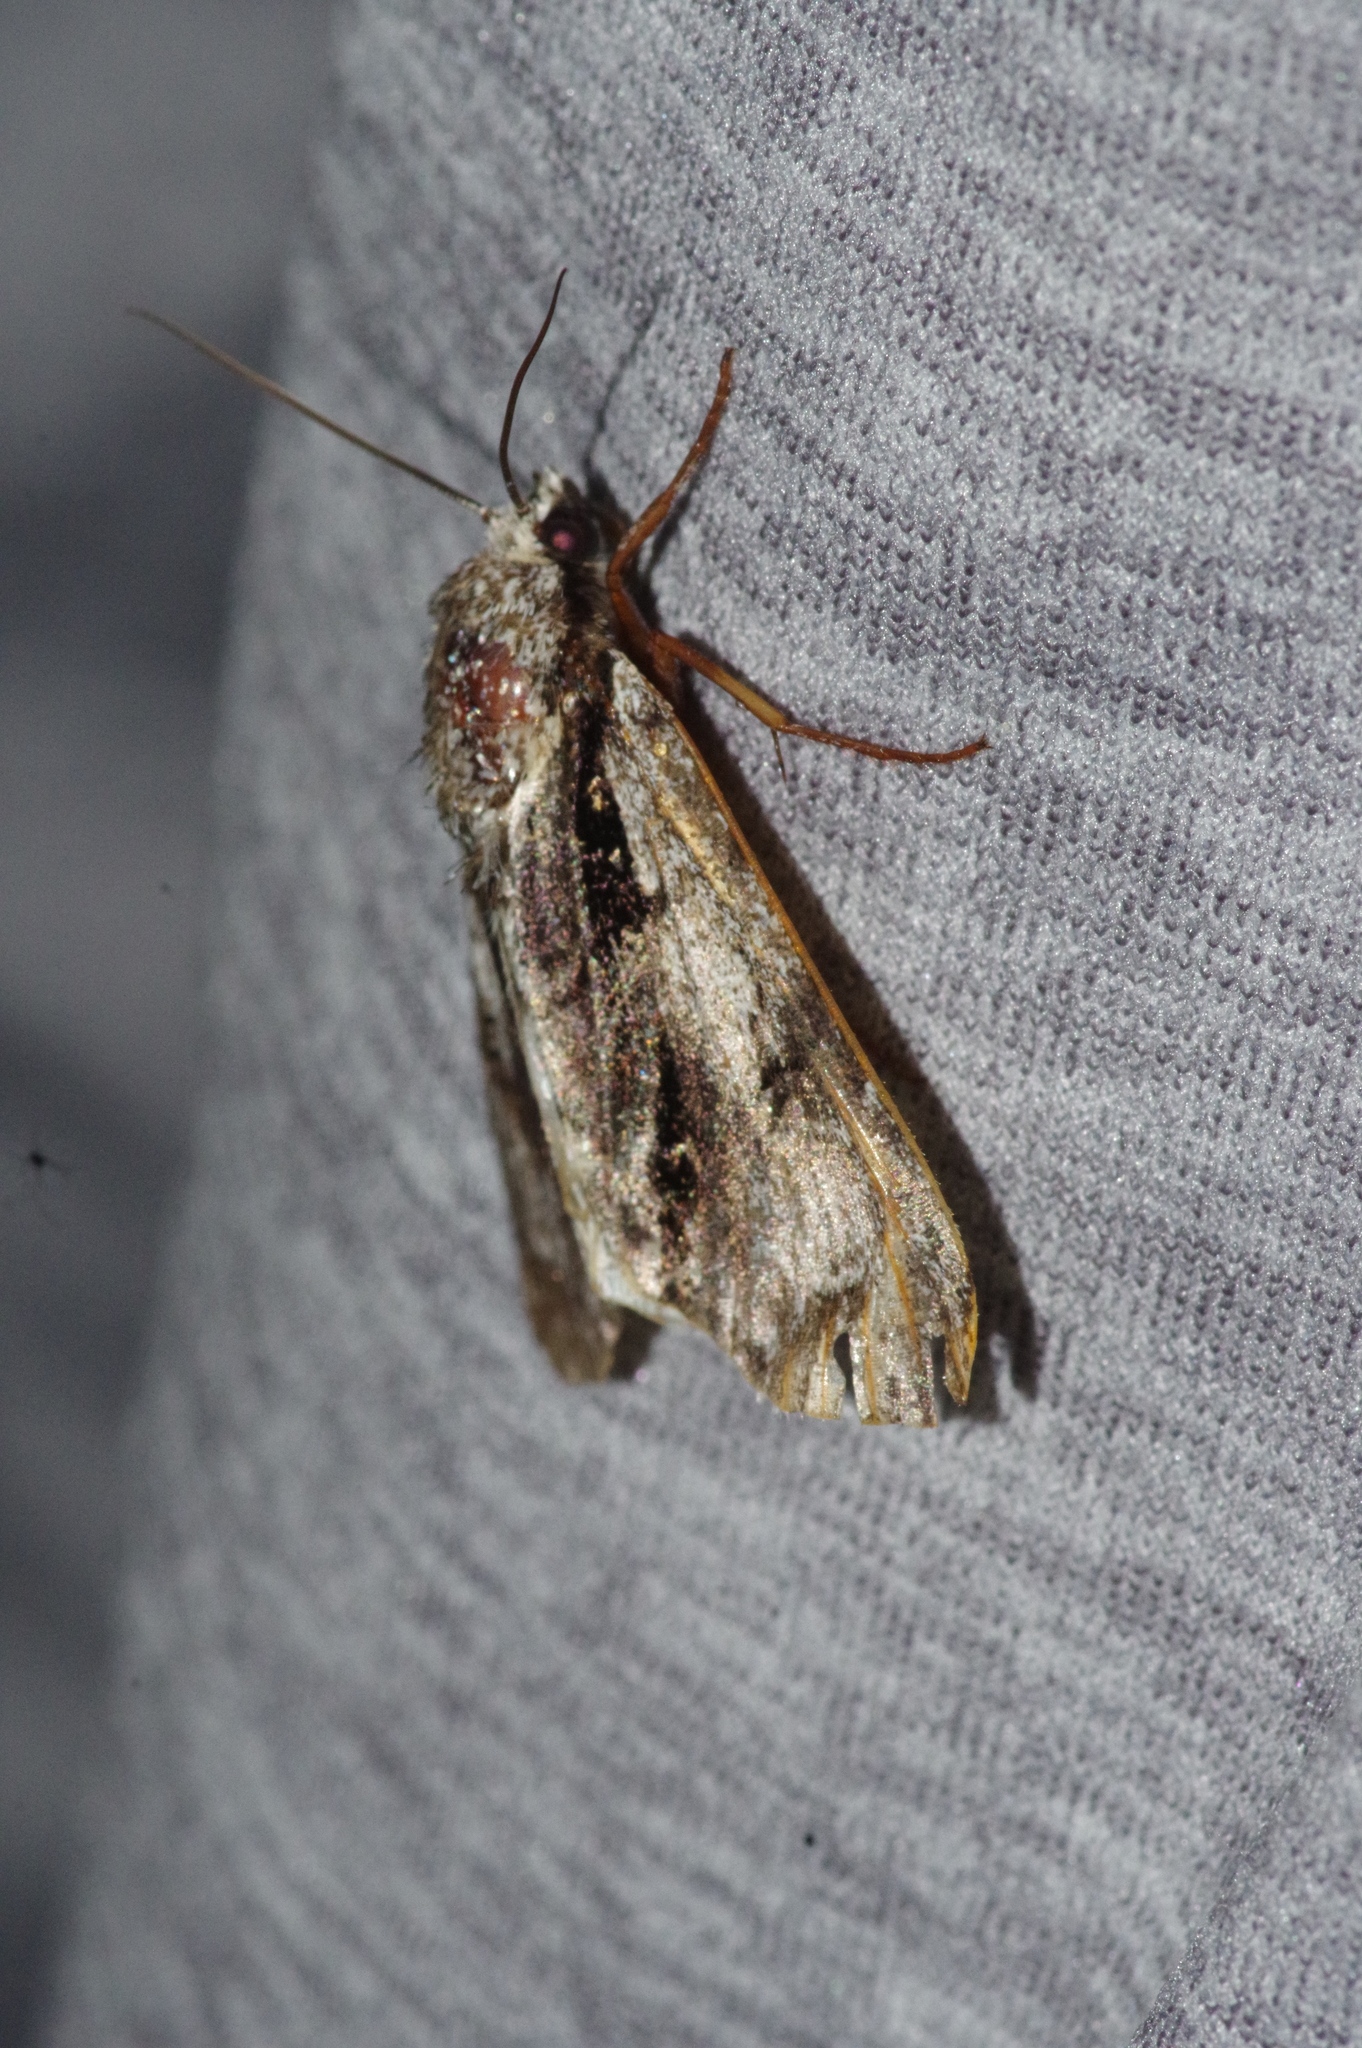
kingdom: Animalia
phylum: Arthropoda
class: Insecta
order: Lepidoptera
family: Noctuidae
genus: Acronicta
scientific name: Acronicta alni
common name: Alder moth
